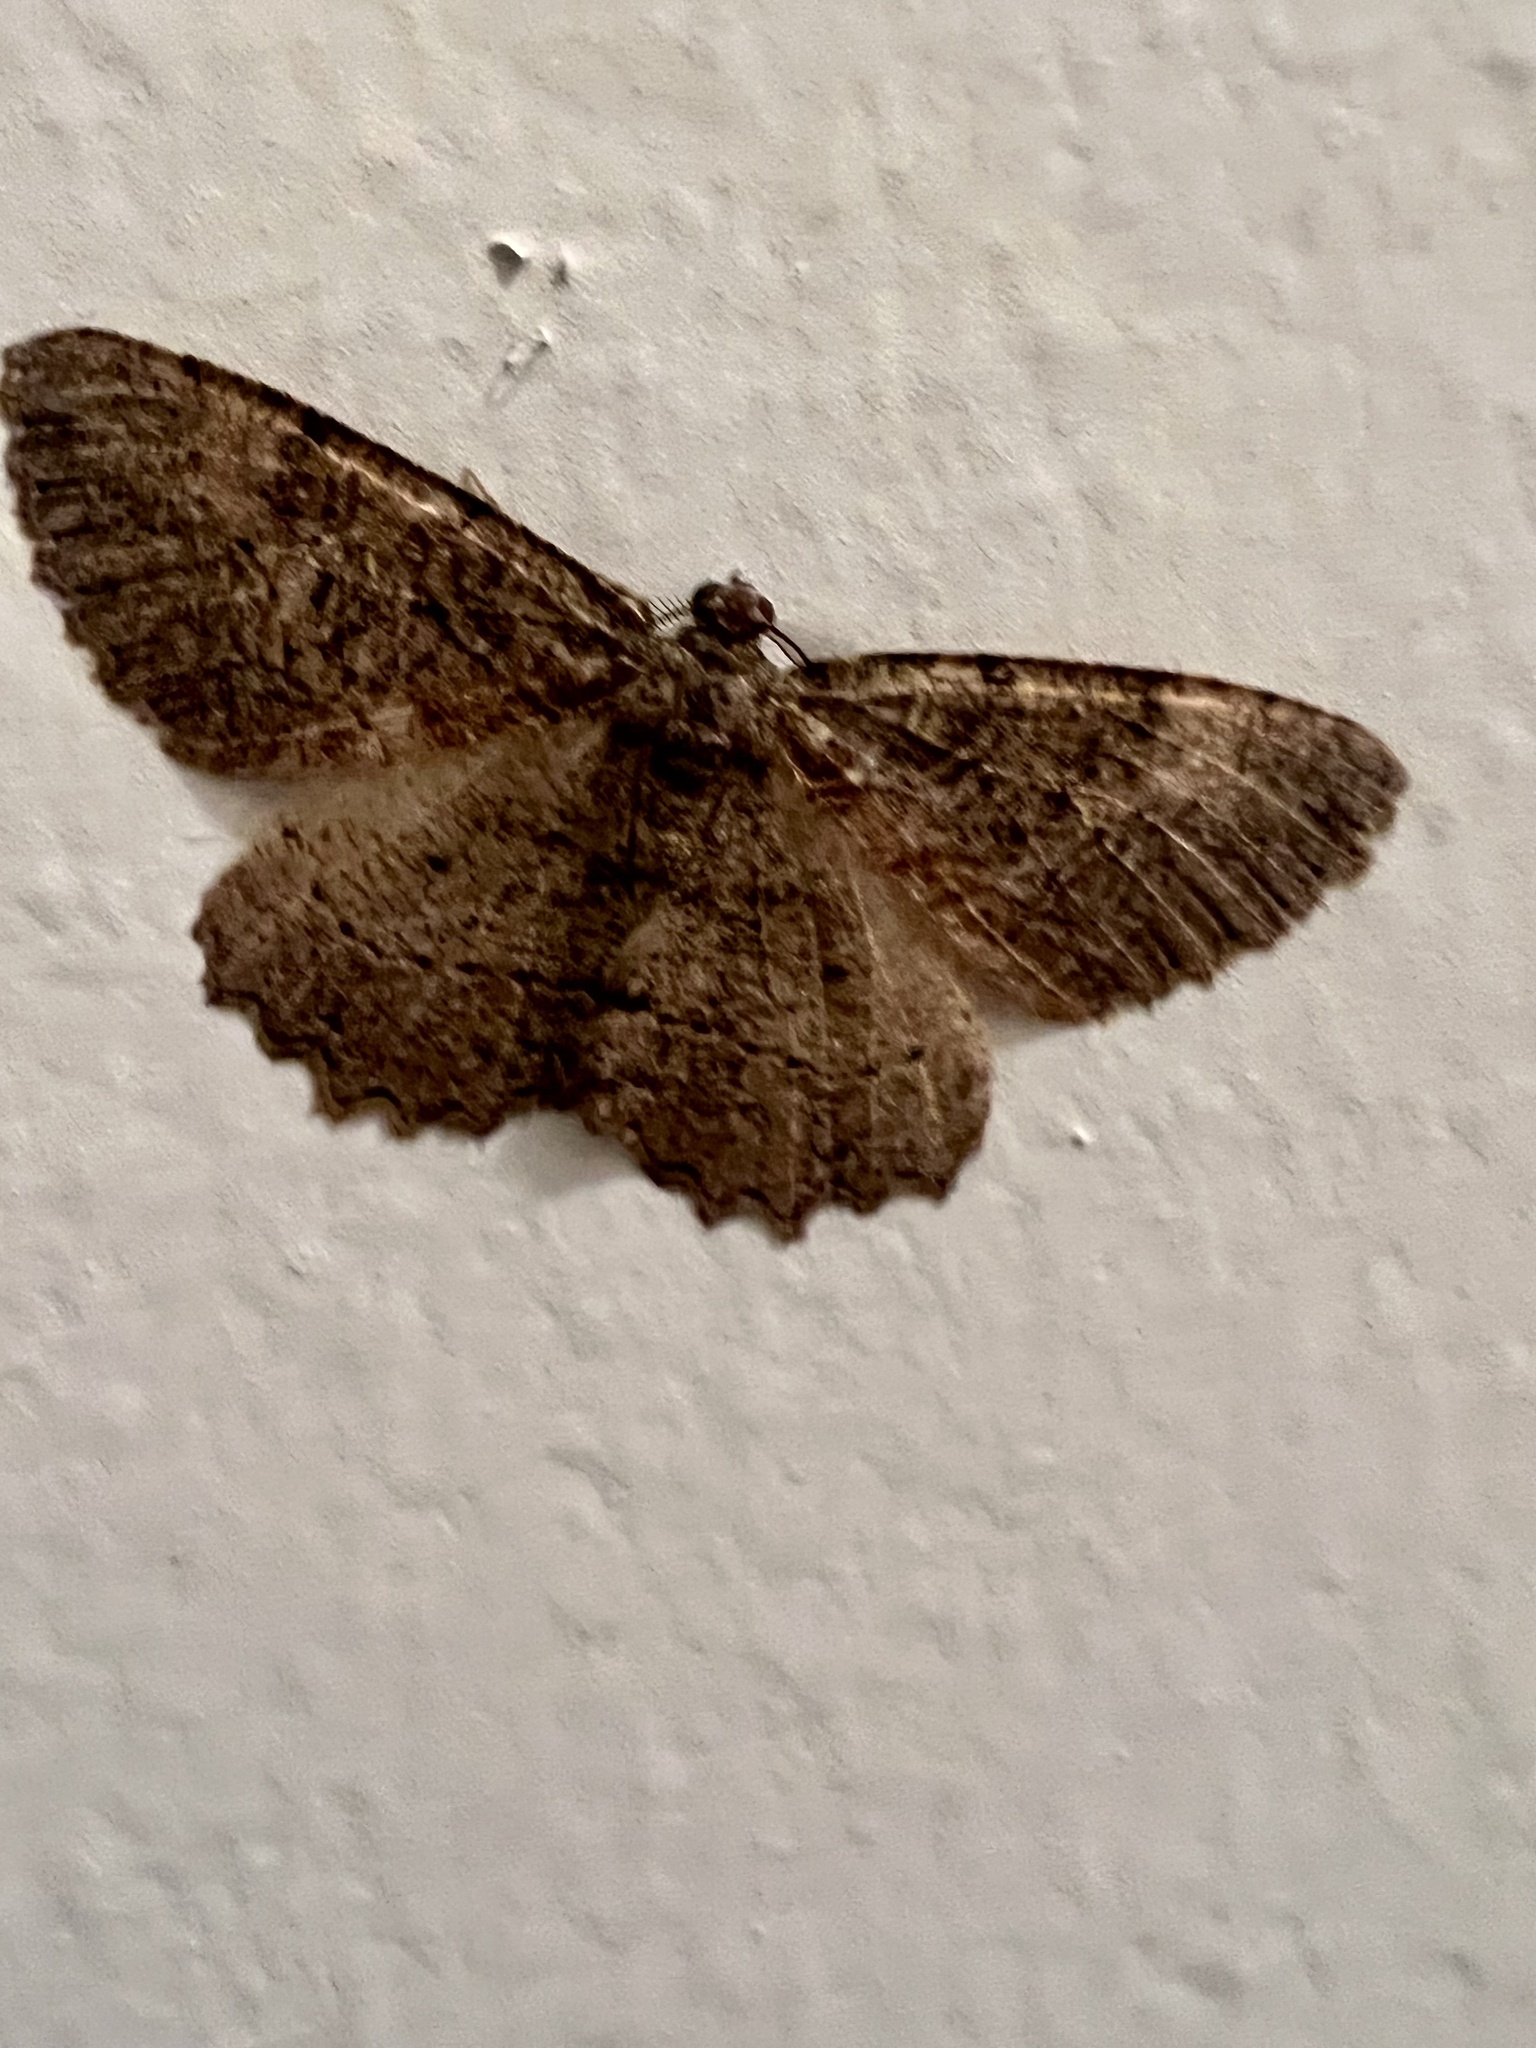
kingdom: Animalia
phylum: Arthropoda
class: Insecta
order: Lepidoptera
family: Geometridae
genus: Neoalcis
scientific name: Neoalcis californiaria
